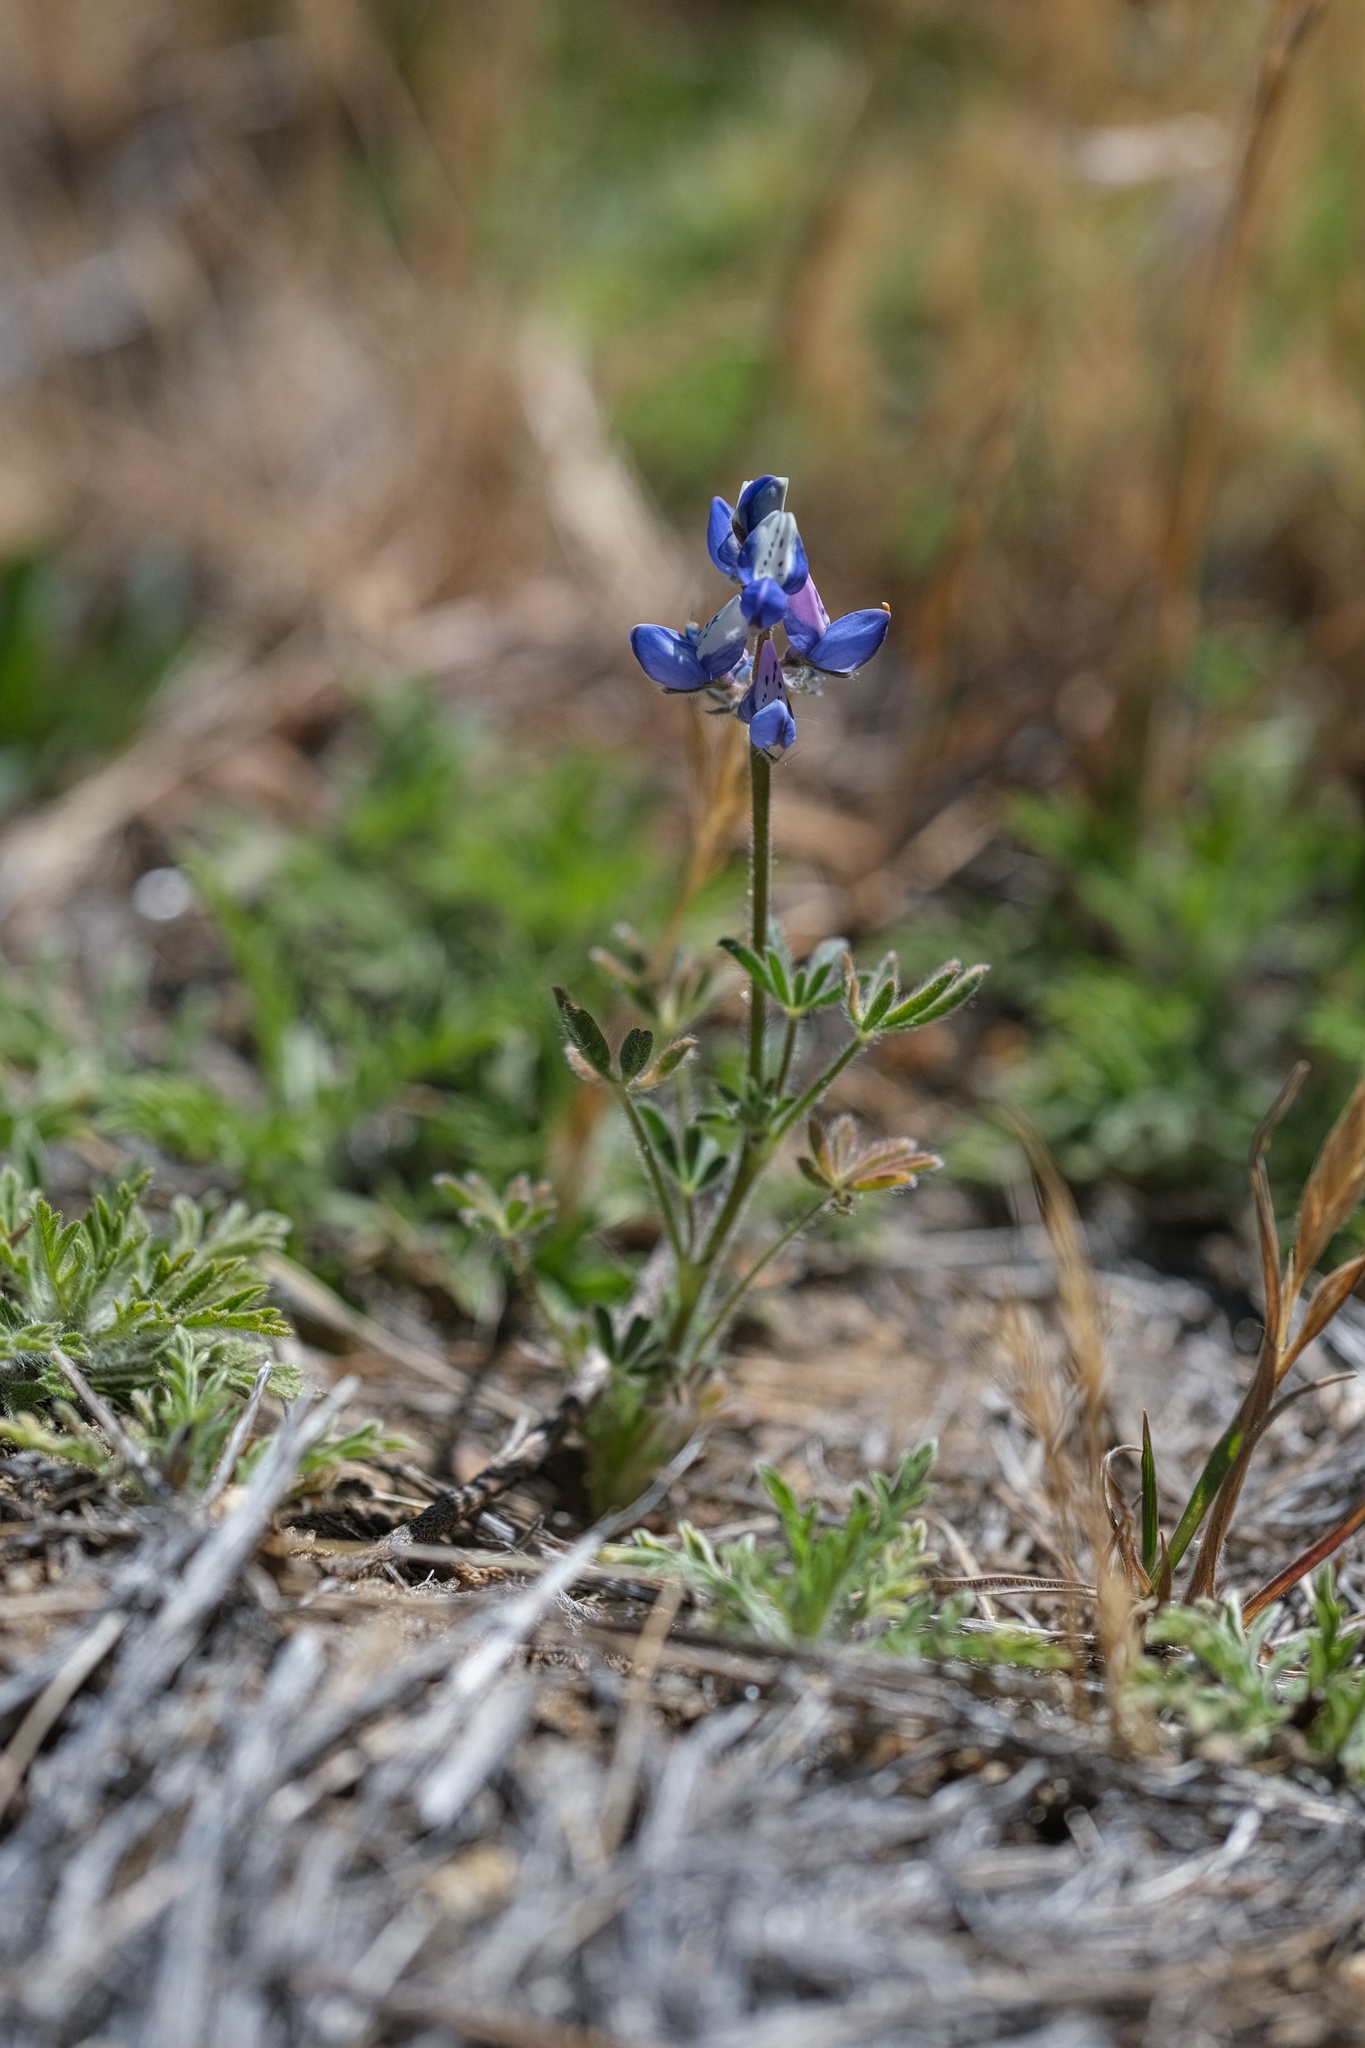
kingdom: Plantae
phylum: Tracheophyta
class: Magnoliopsida
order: Fabales
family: Fabaceae
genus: Lupinus
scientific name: Lupinus bicolor
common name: Miniature lupine
